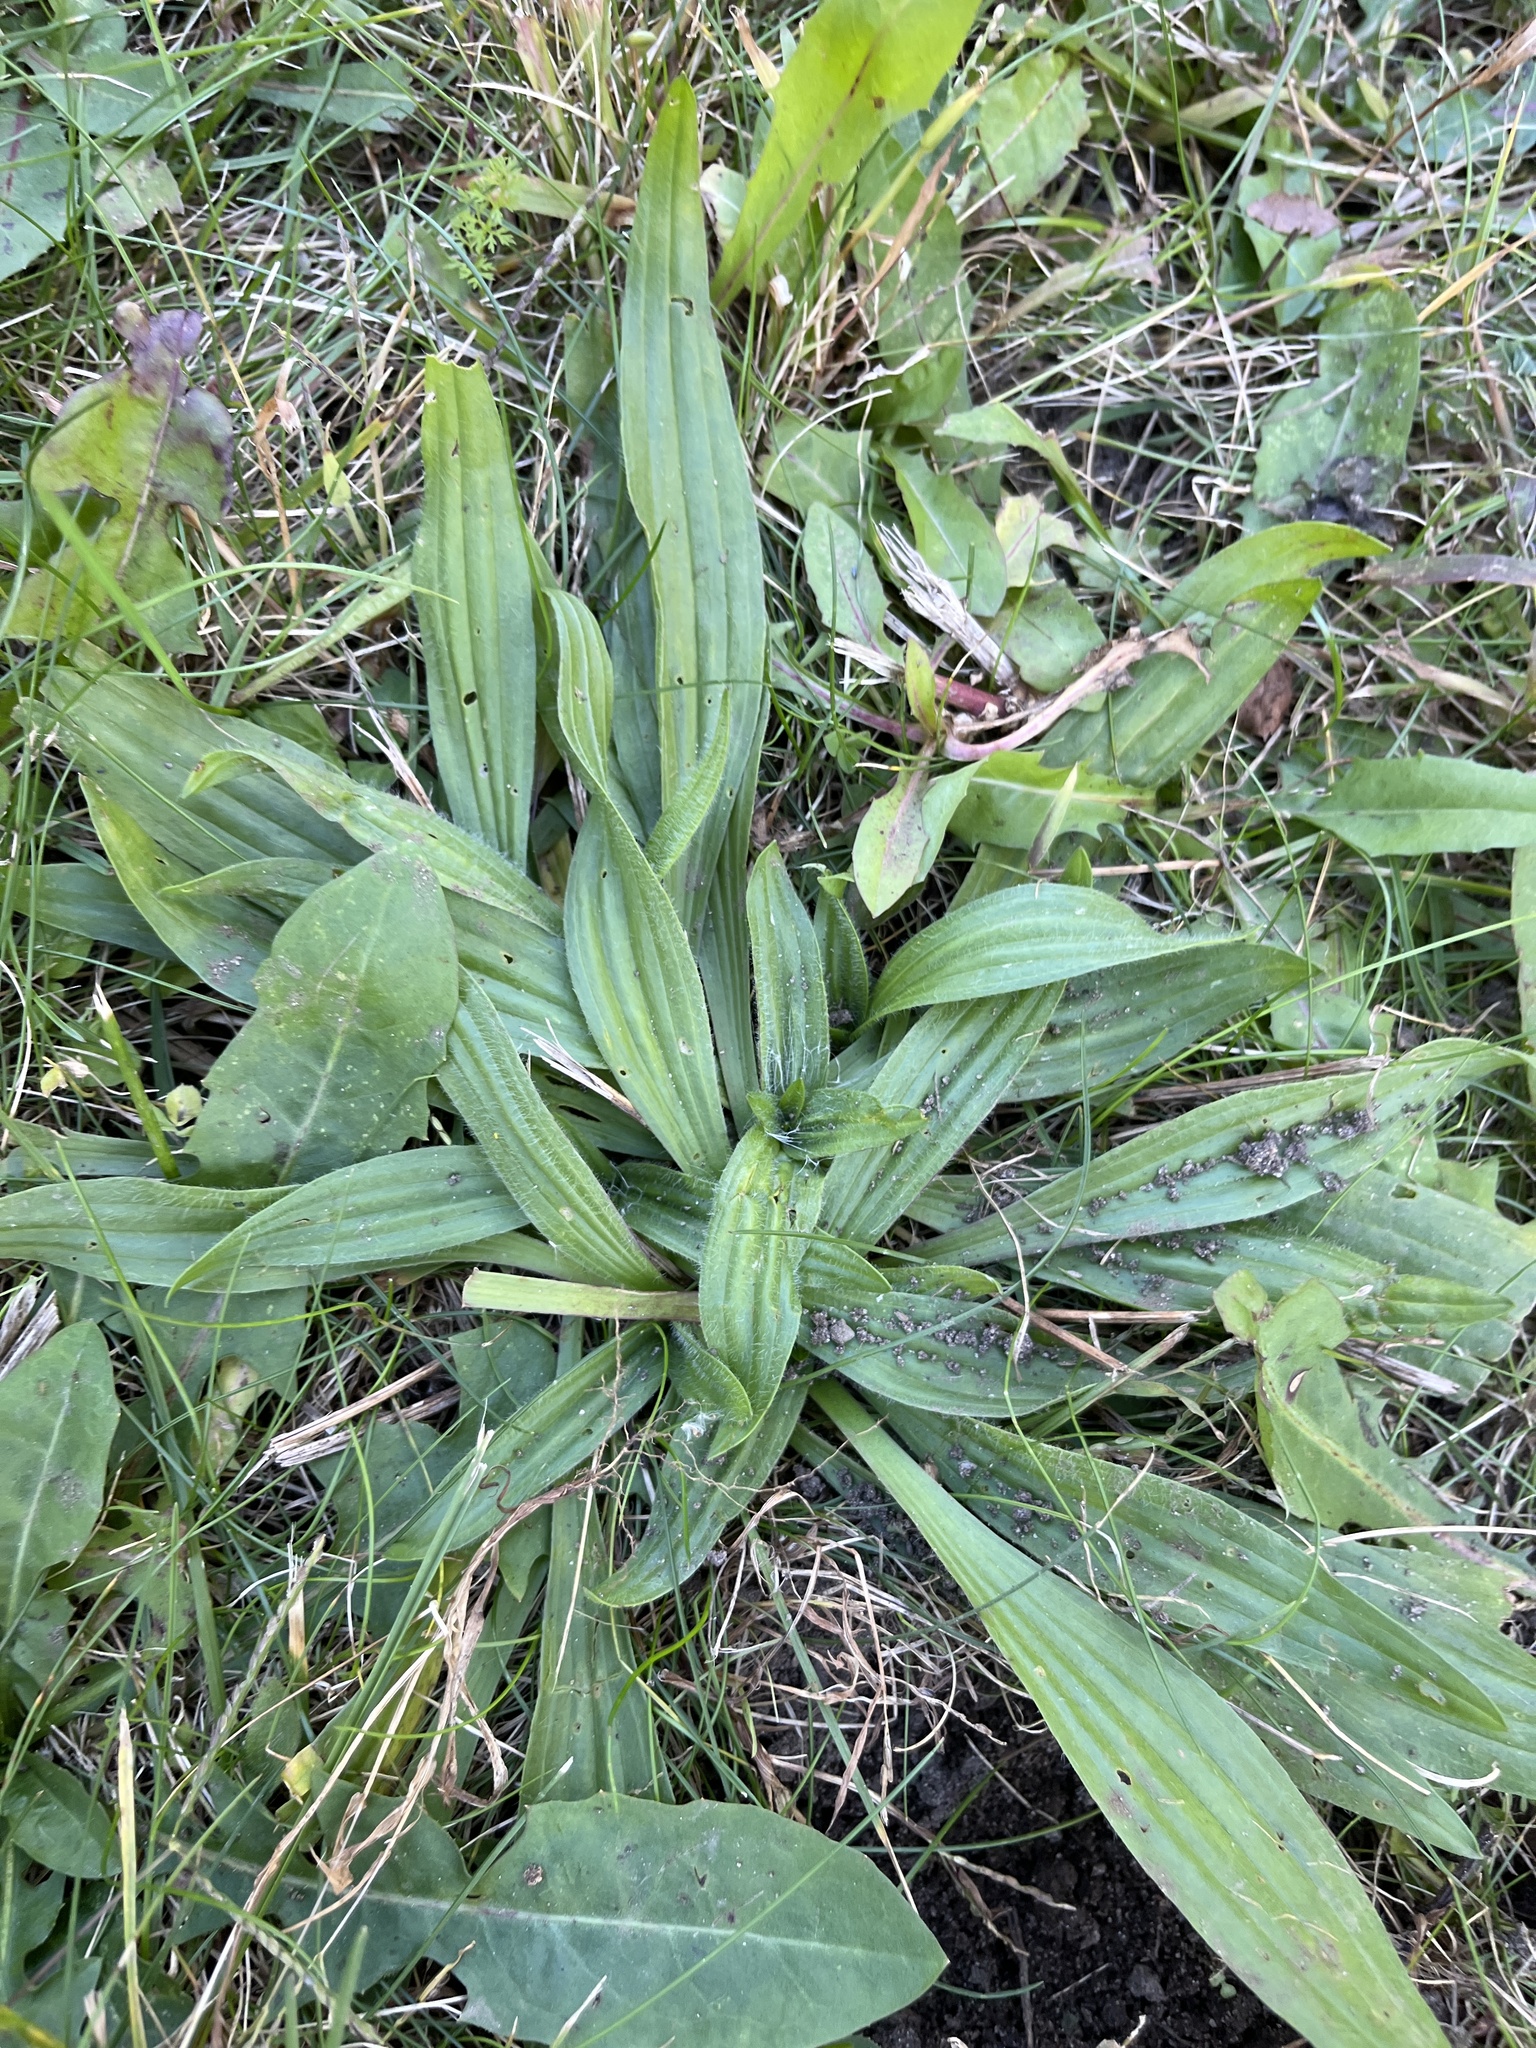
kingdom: Plantae
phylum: Tracheophyta
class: Magnoliopsida
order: Lamiales
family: Plantaginaceae
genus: Plantago
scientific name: Plantago lanceolata
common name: Ribwort plantain
